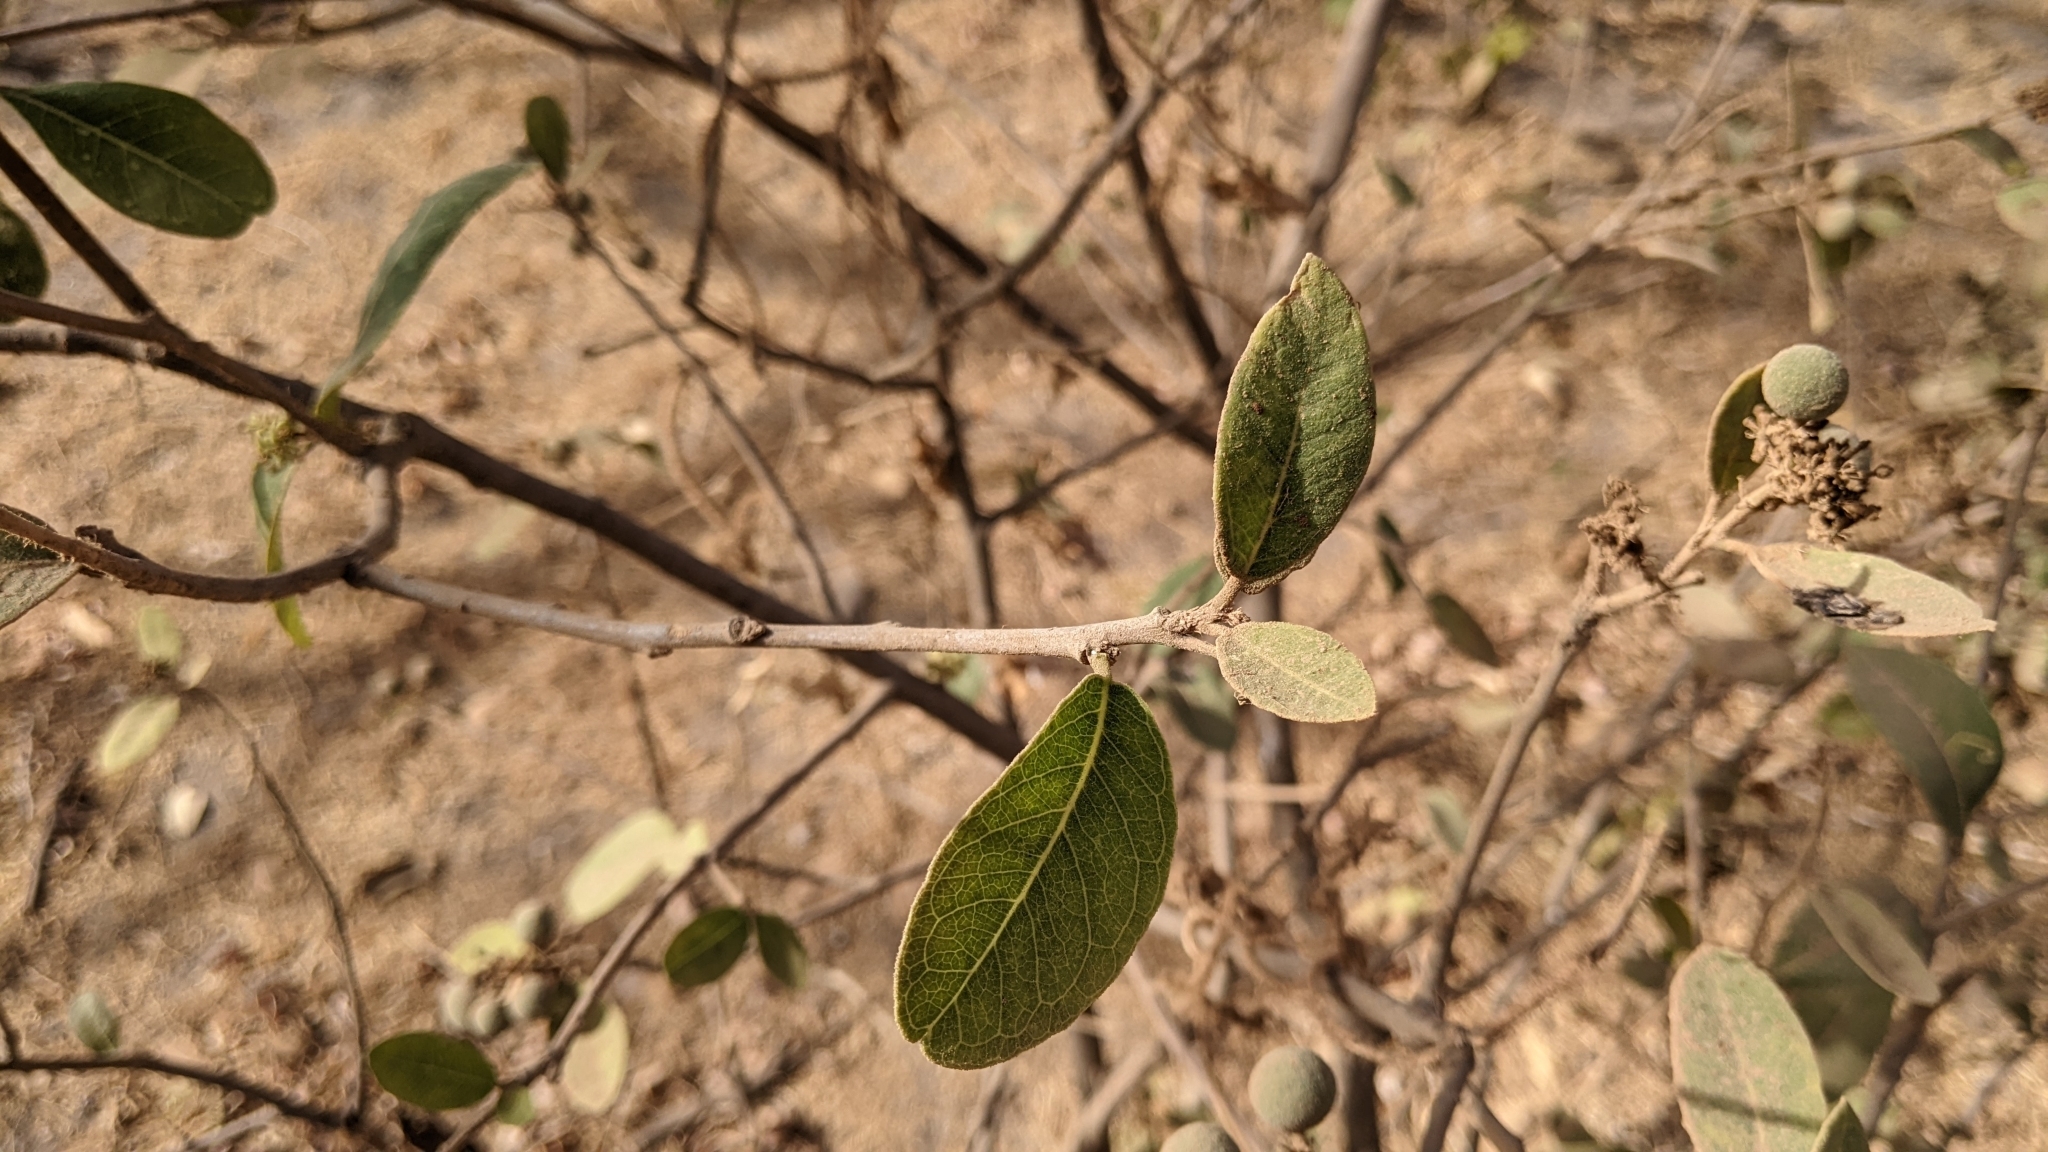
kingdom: Plantae
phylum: Tracheophyta
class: Magnoliopsida
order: Brassicales
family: Capparaceae
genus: Boscia
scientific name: Boscia senegalensis
